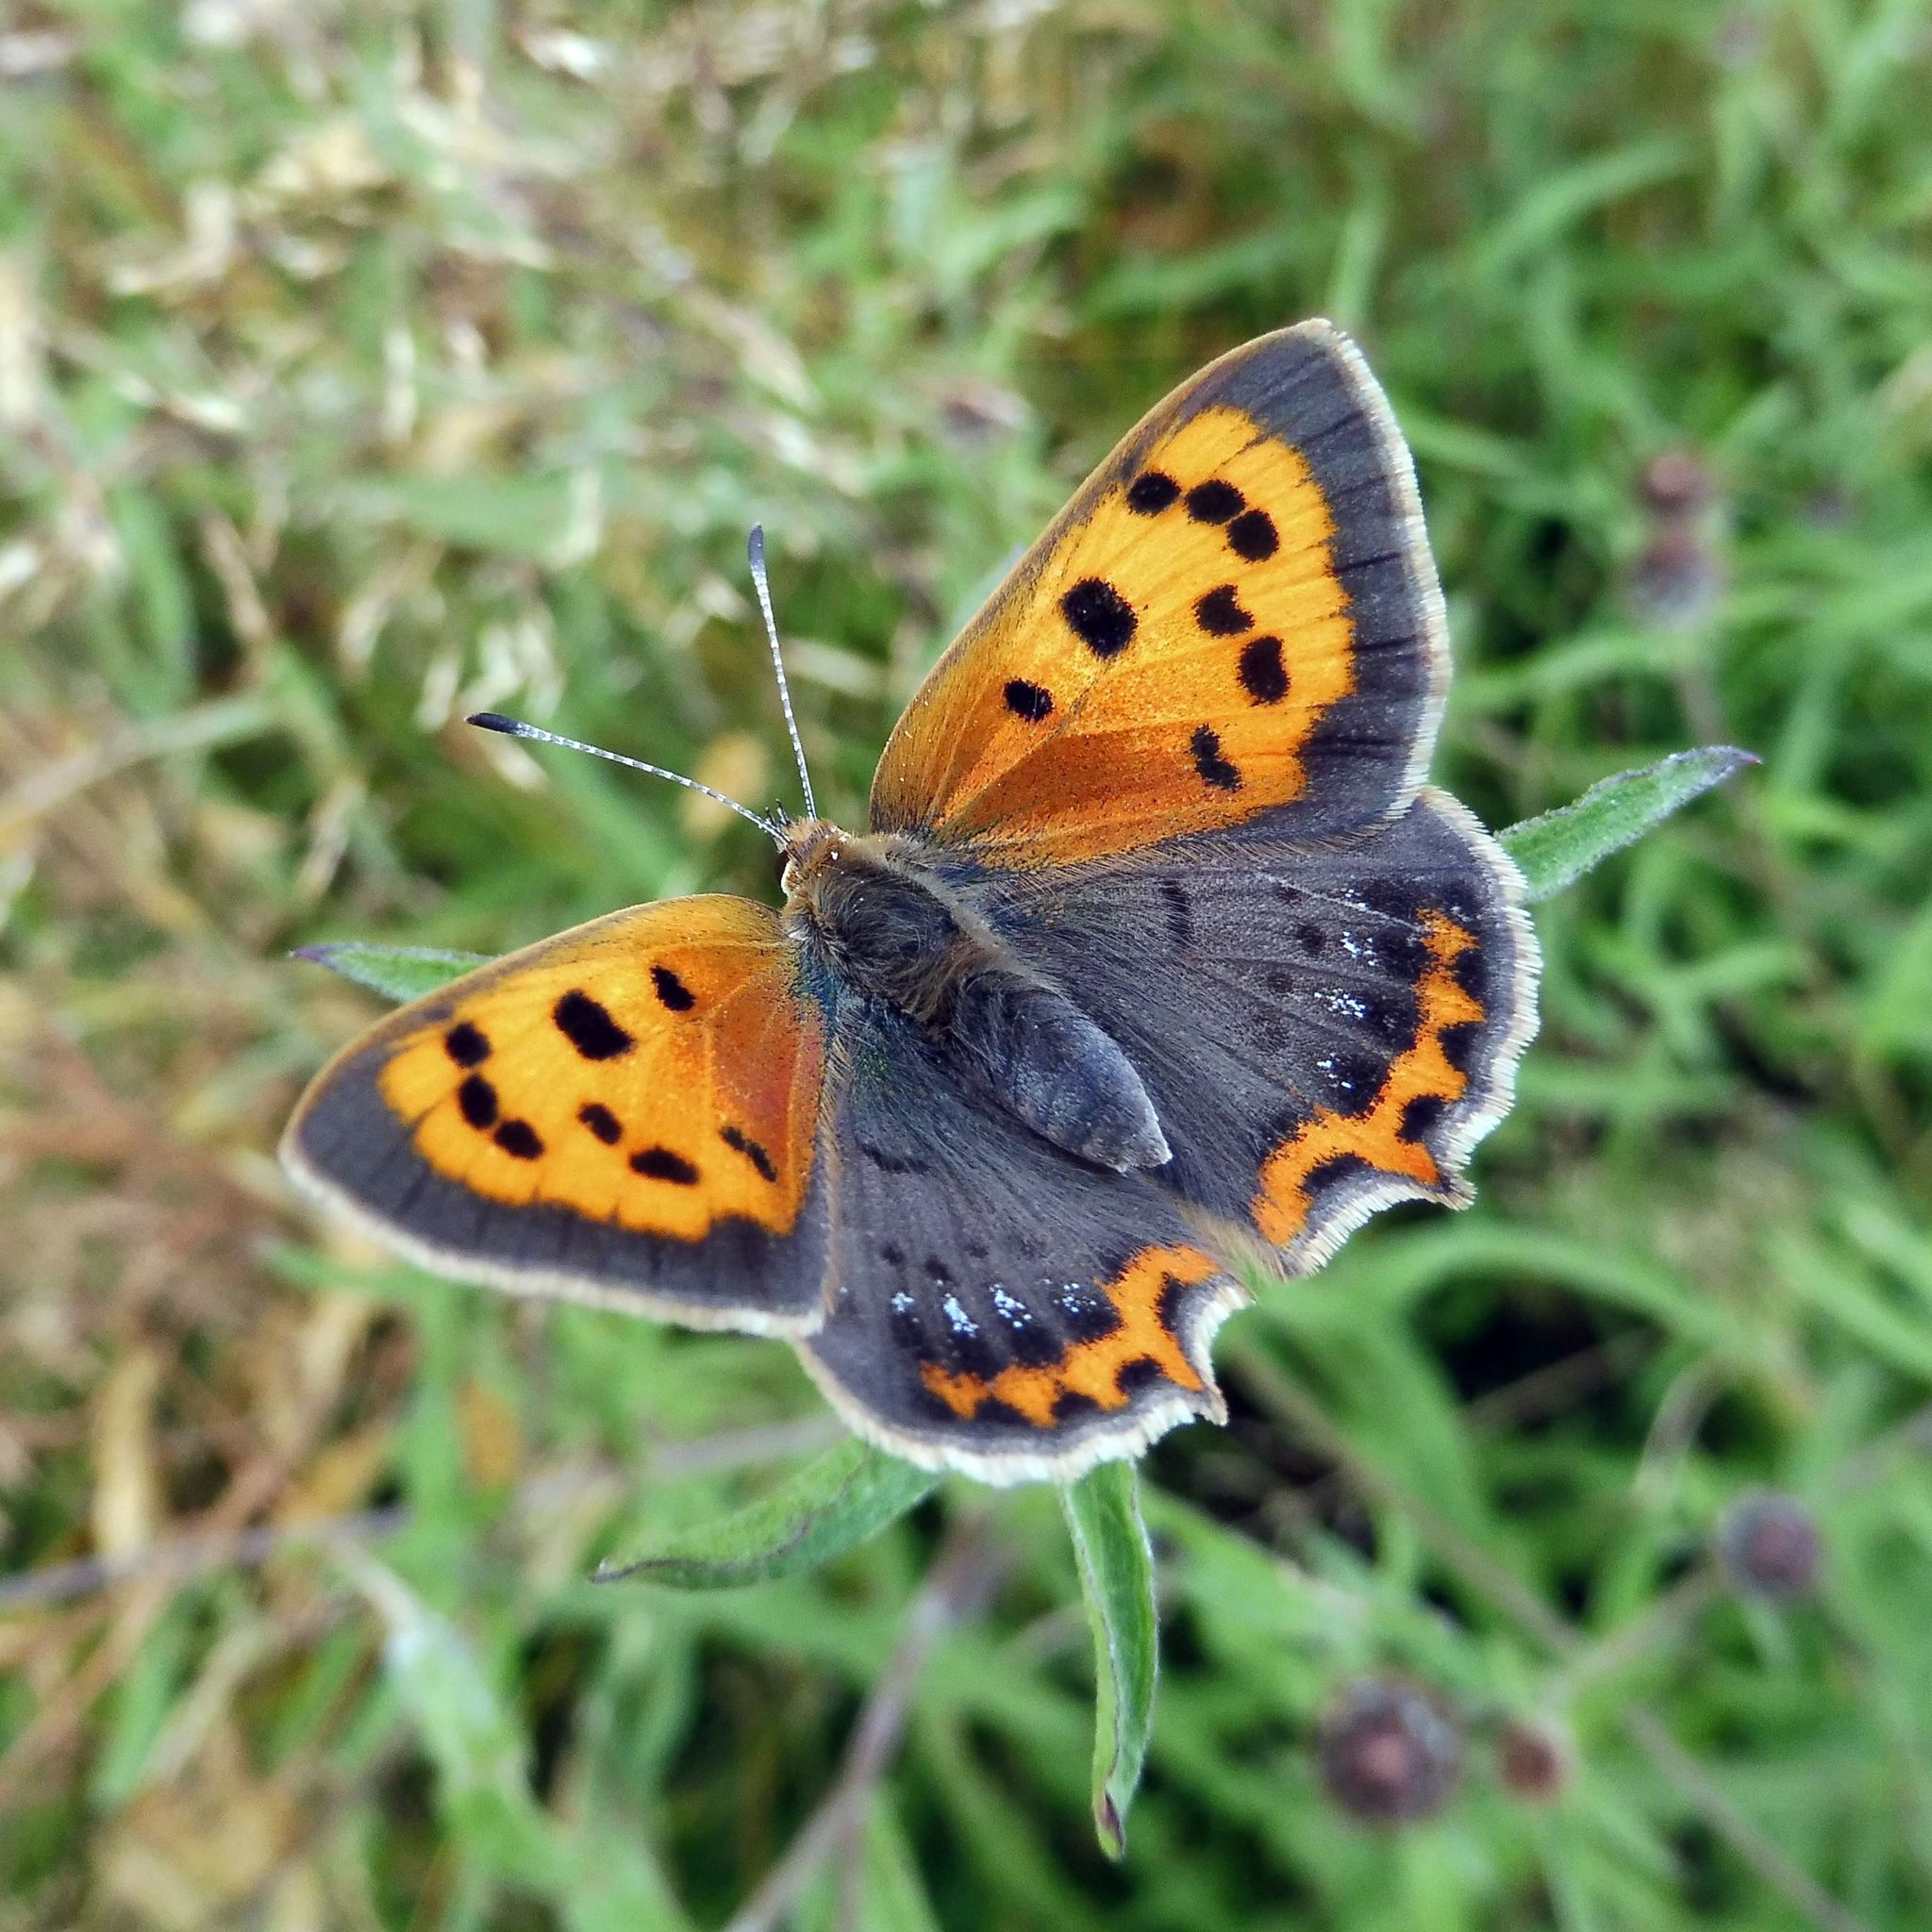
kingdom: Animalia
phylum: Arthropoda
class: Insecta
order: Lepidoptera
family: Lycaenidae
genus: Lycaena
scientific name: Lycaena phlaeas
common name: Small copper
